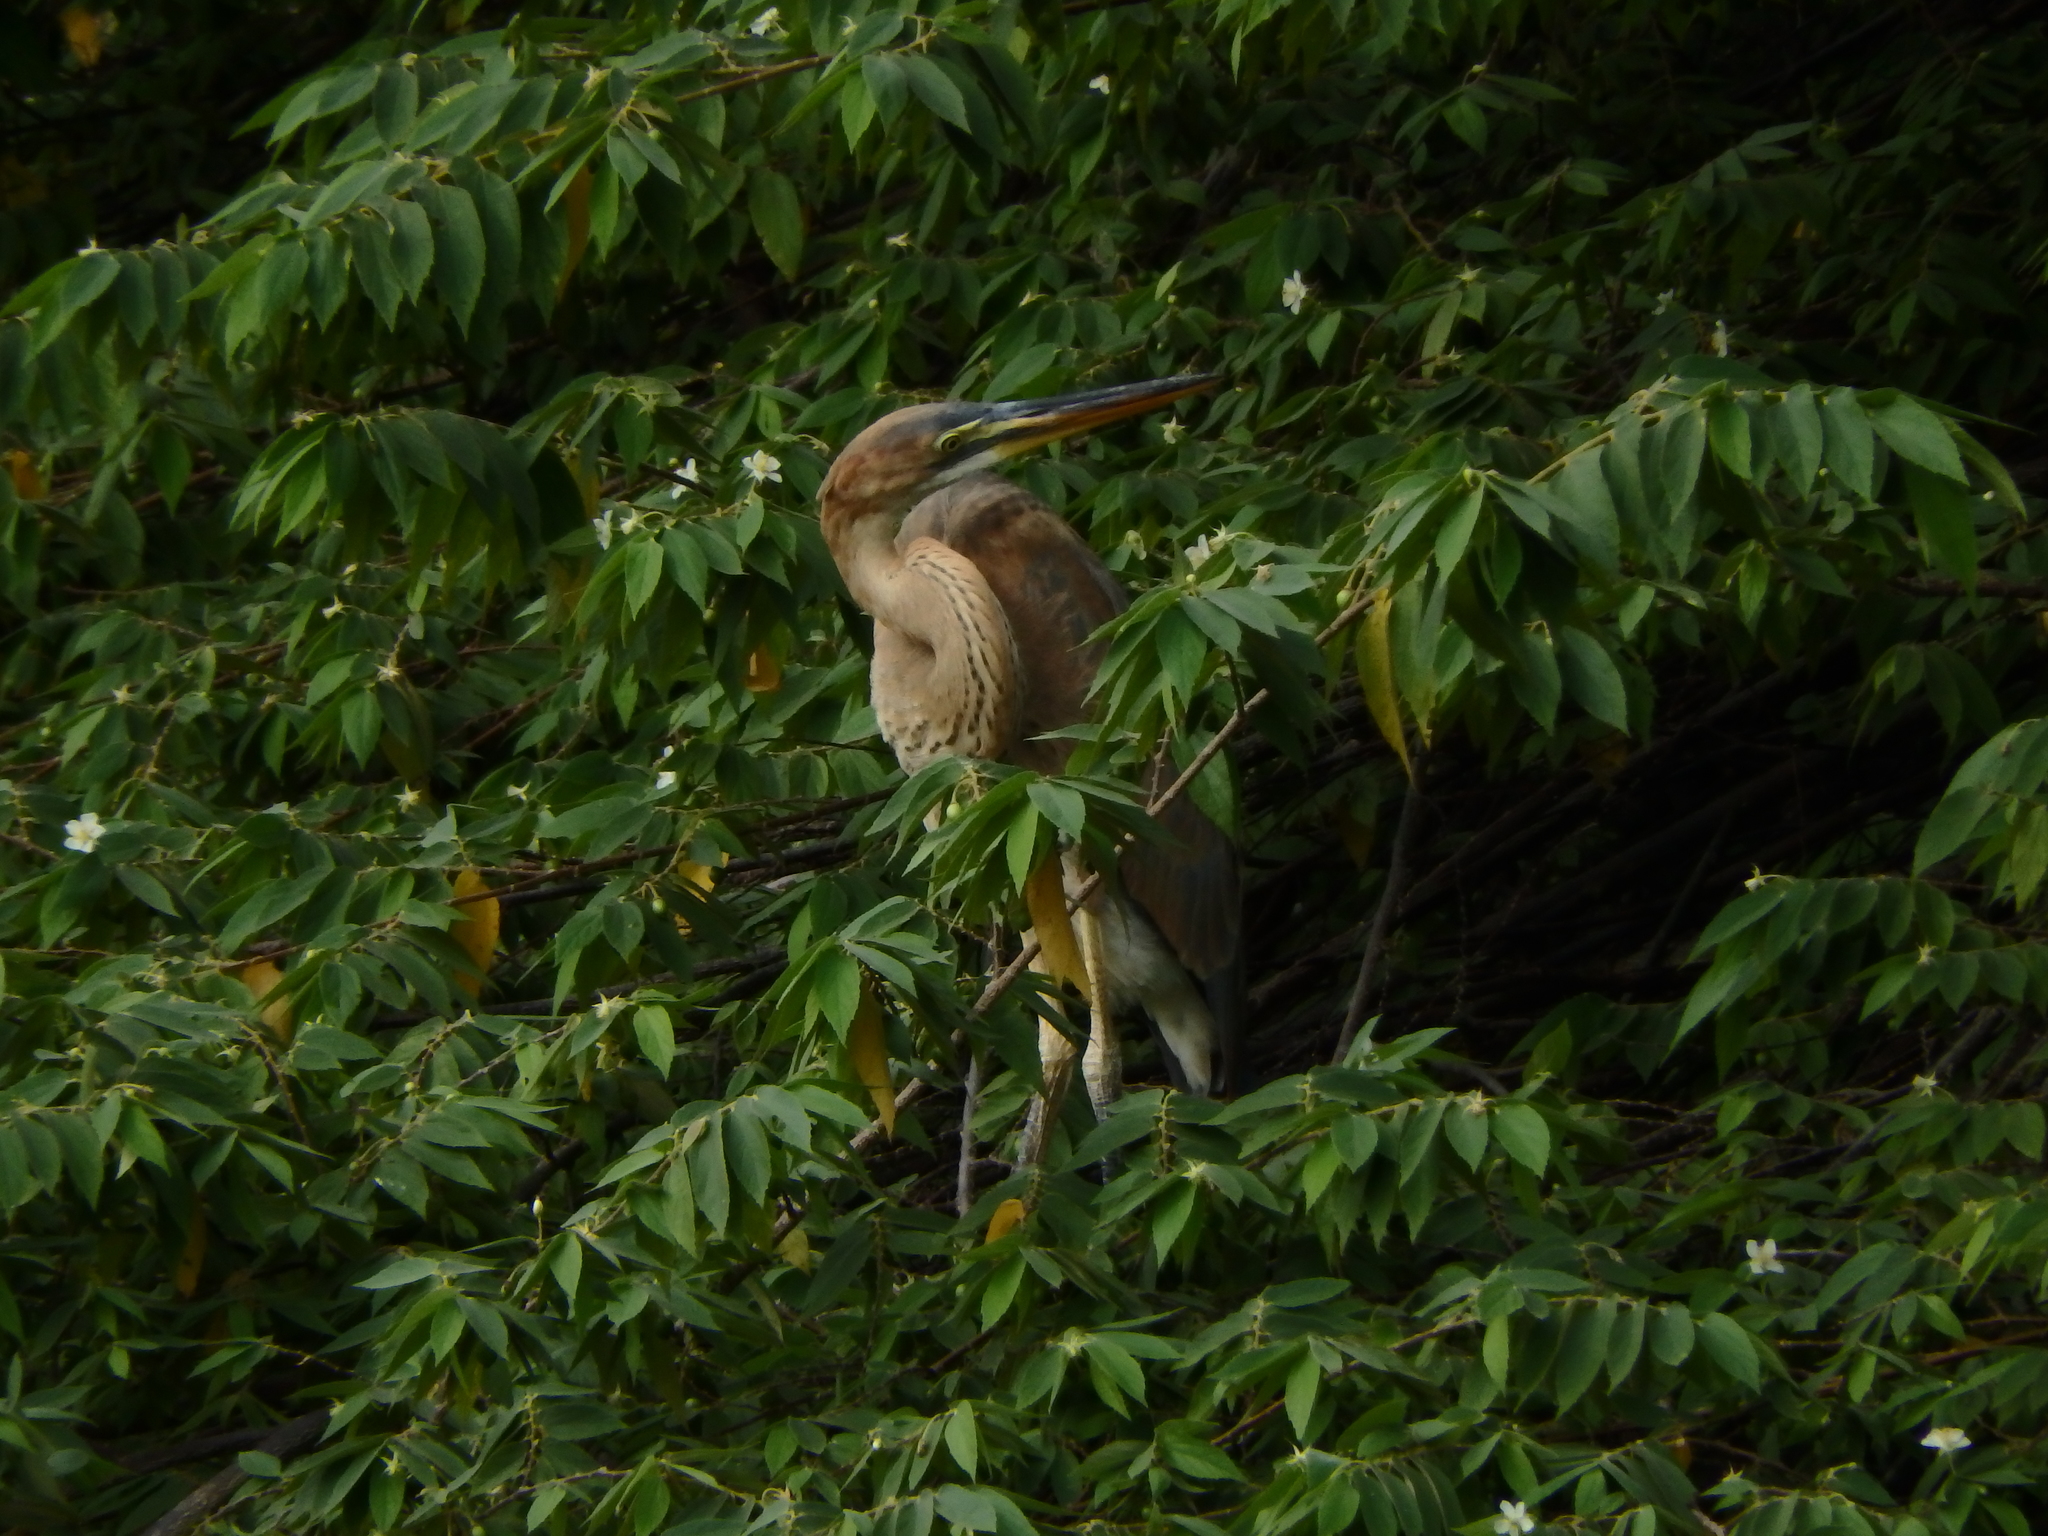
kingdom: Animalia
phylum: Chordata
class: Aves
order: Pelecaniformes
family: Ardeidae
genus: Ardea
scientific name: Ardea purpurea
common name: Purple heron
